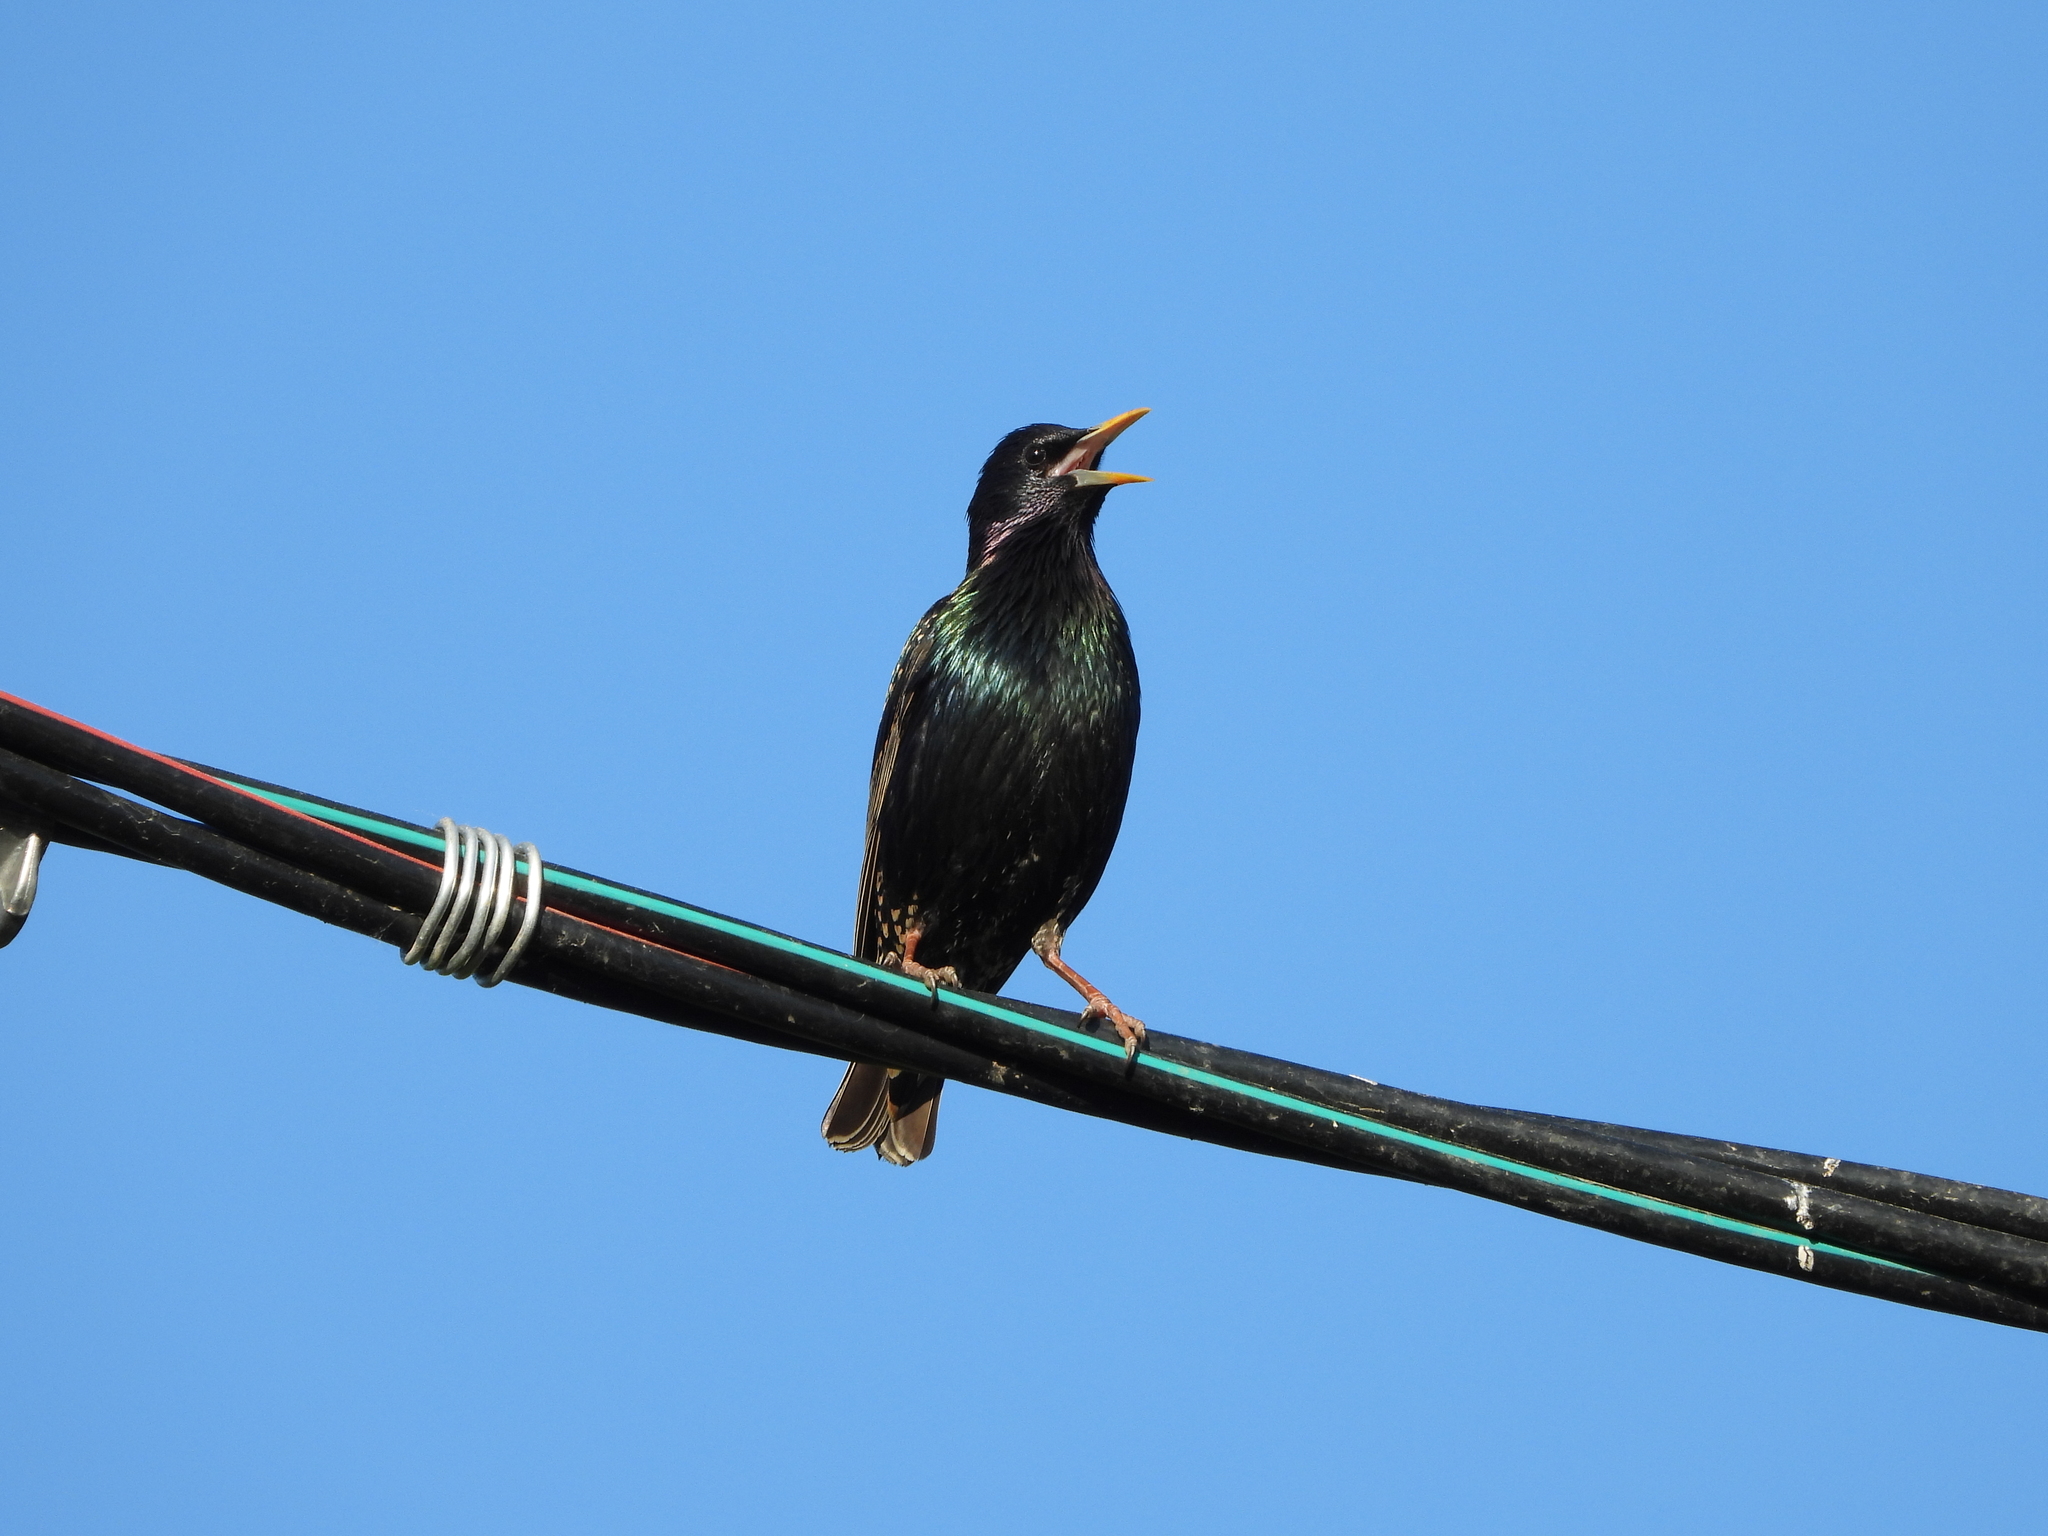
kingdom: Animalia
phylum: Chordata
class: Aves
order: Passeriformes
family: Sturnidae
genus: Sturnus
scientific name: Sturnus vulgaris
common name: Common starling
